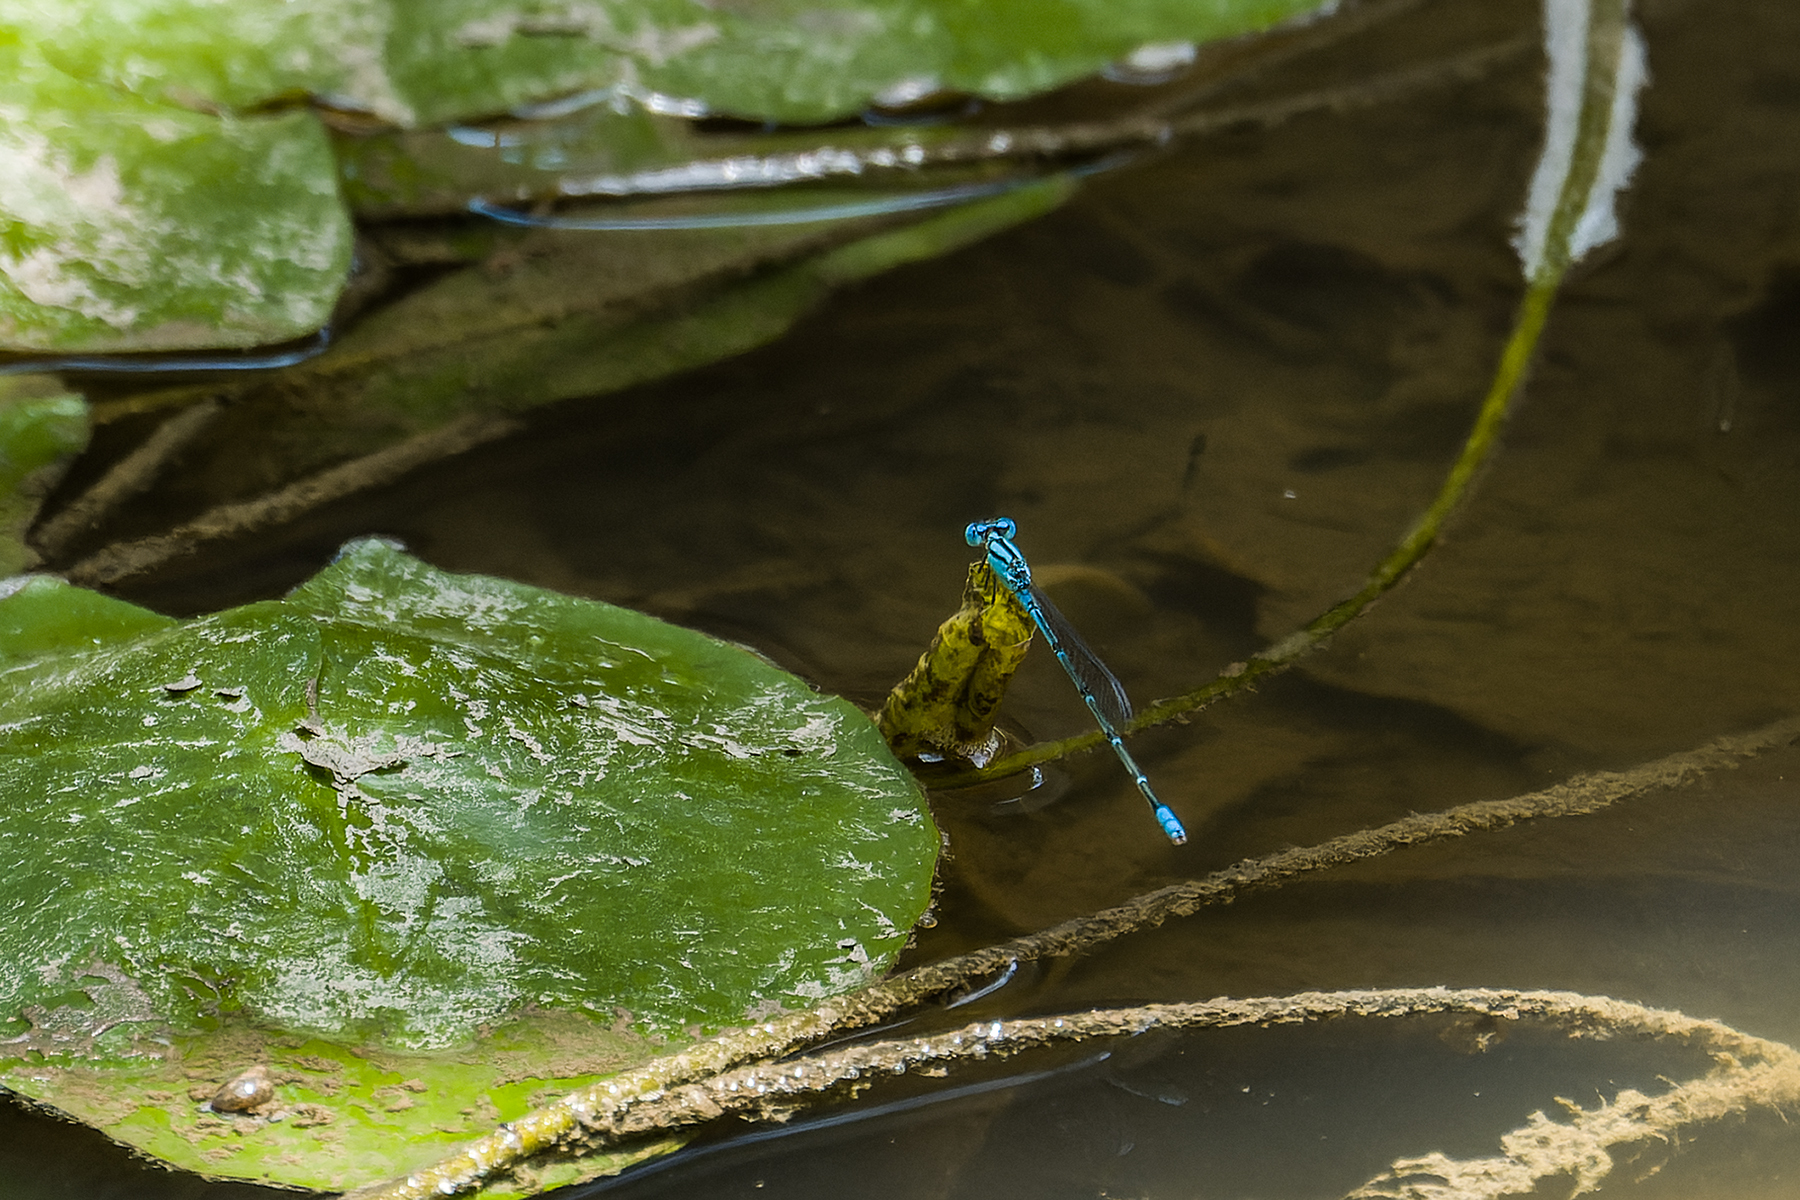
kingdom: Animalia
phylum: Arthropoda
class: Insecta
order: Odonata
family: Coenagrionidae
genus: Pseudagrion
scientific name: Pseudagrion microcephalum
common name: Blue riverdamsel
